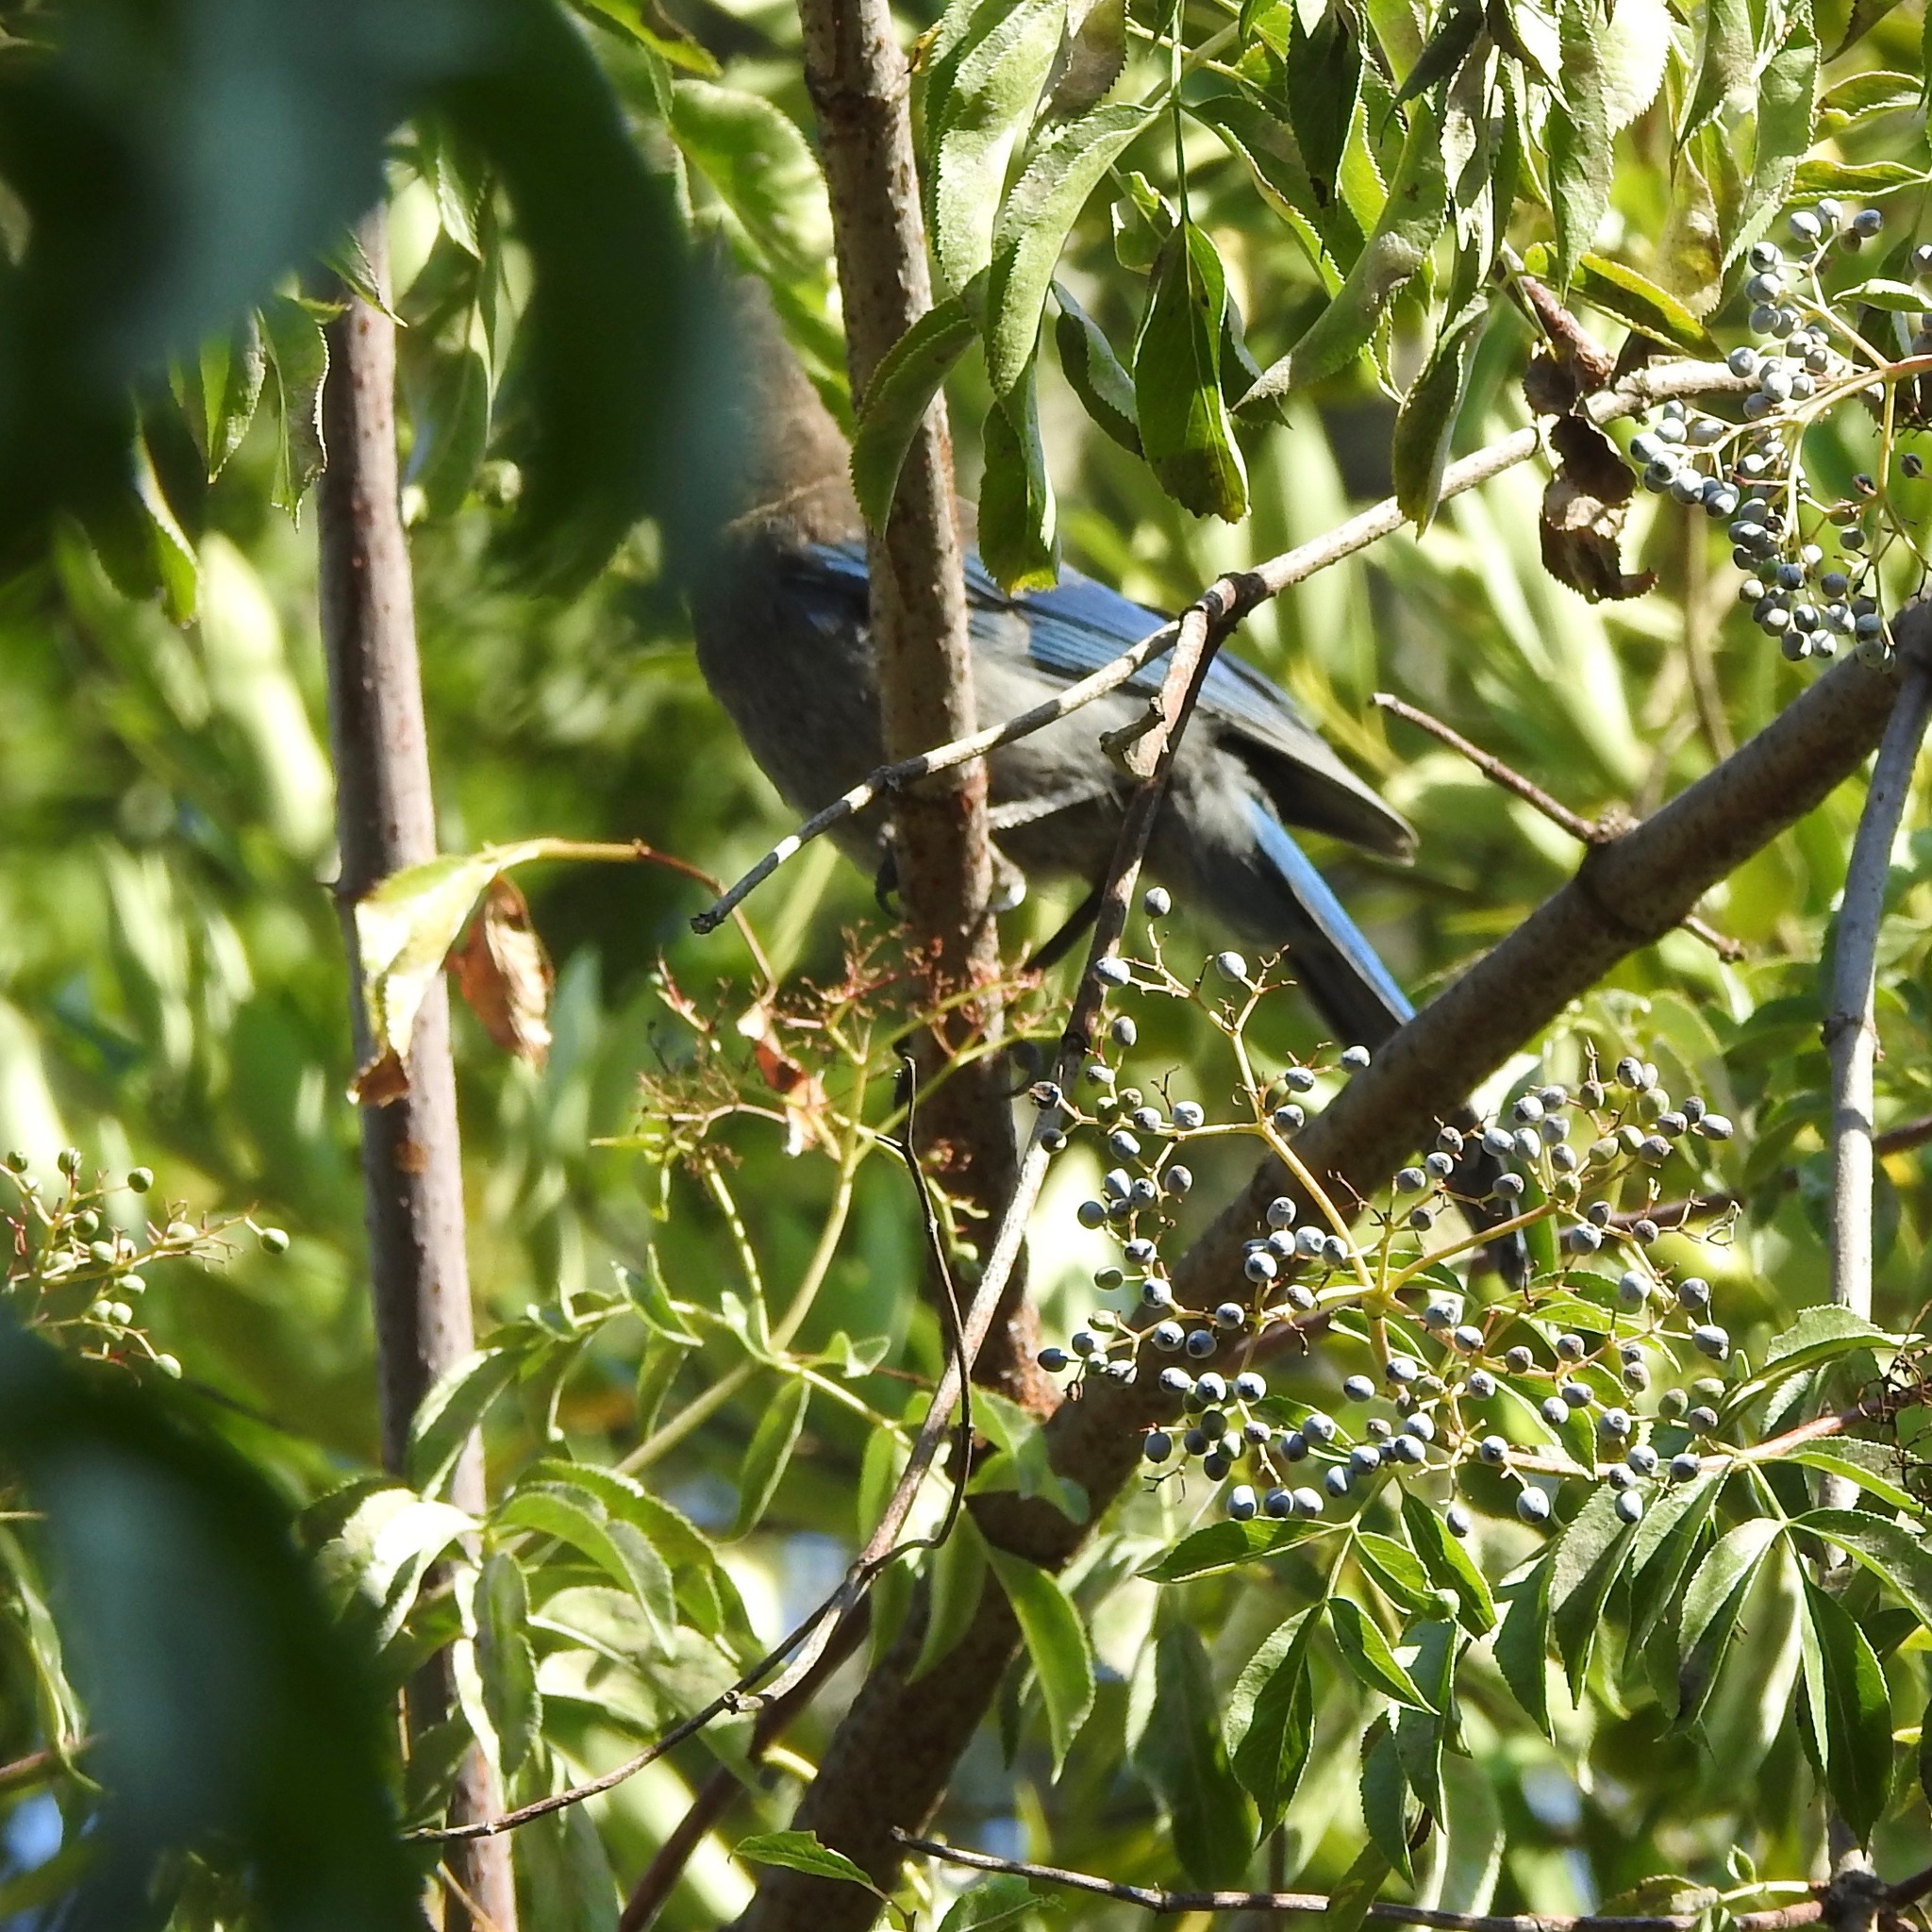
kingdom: Animalia
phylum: Chordata
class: Aves
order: Passeriformes
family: Corvidae
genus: Aphelocoma
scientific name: Aphelocoma californica
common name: California scrub-jay
